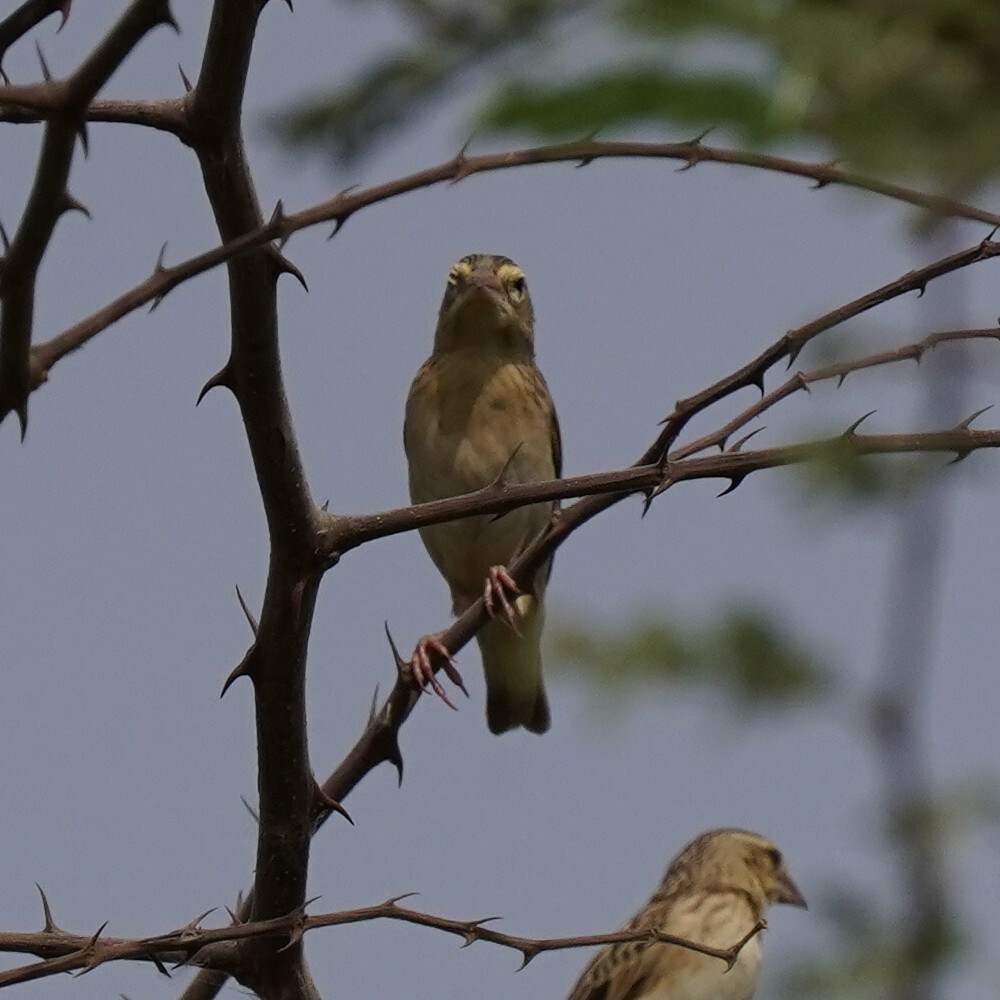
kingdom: Animalia
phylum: Chordata
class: Aves
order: Passeriformes
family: Ploceidae
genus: Euplectes
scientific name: Euplectes franciscanus
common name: Northern red bishop
